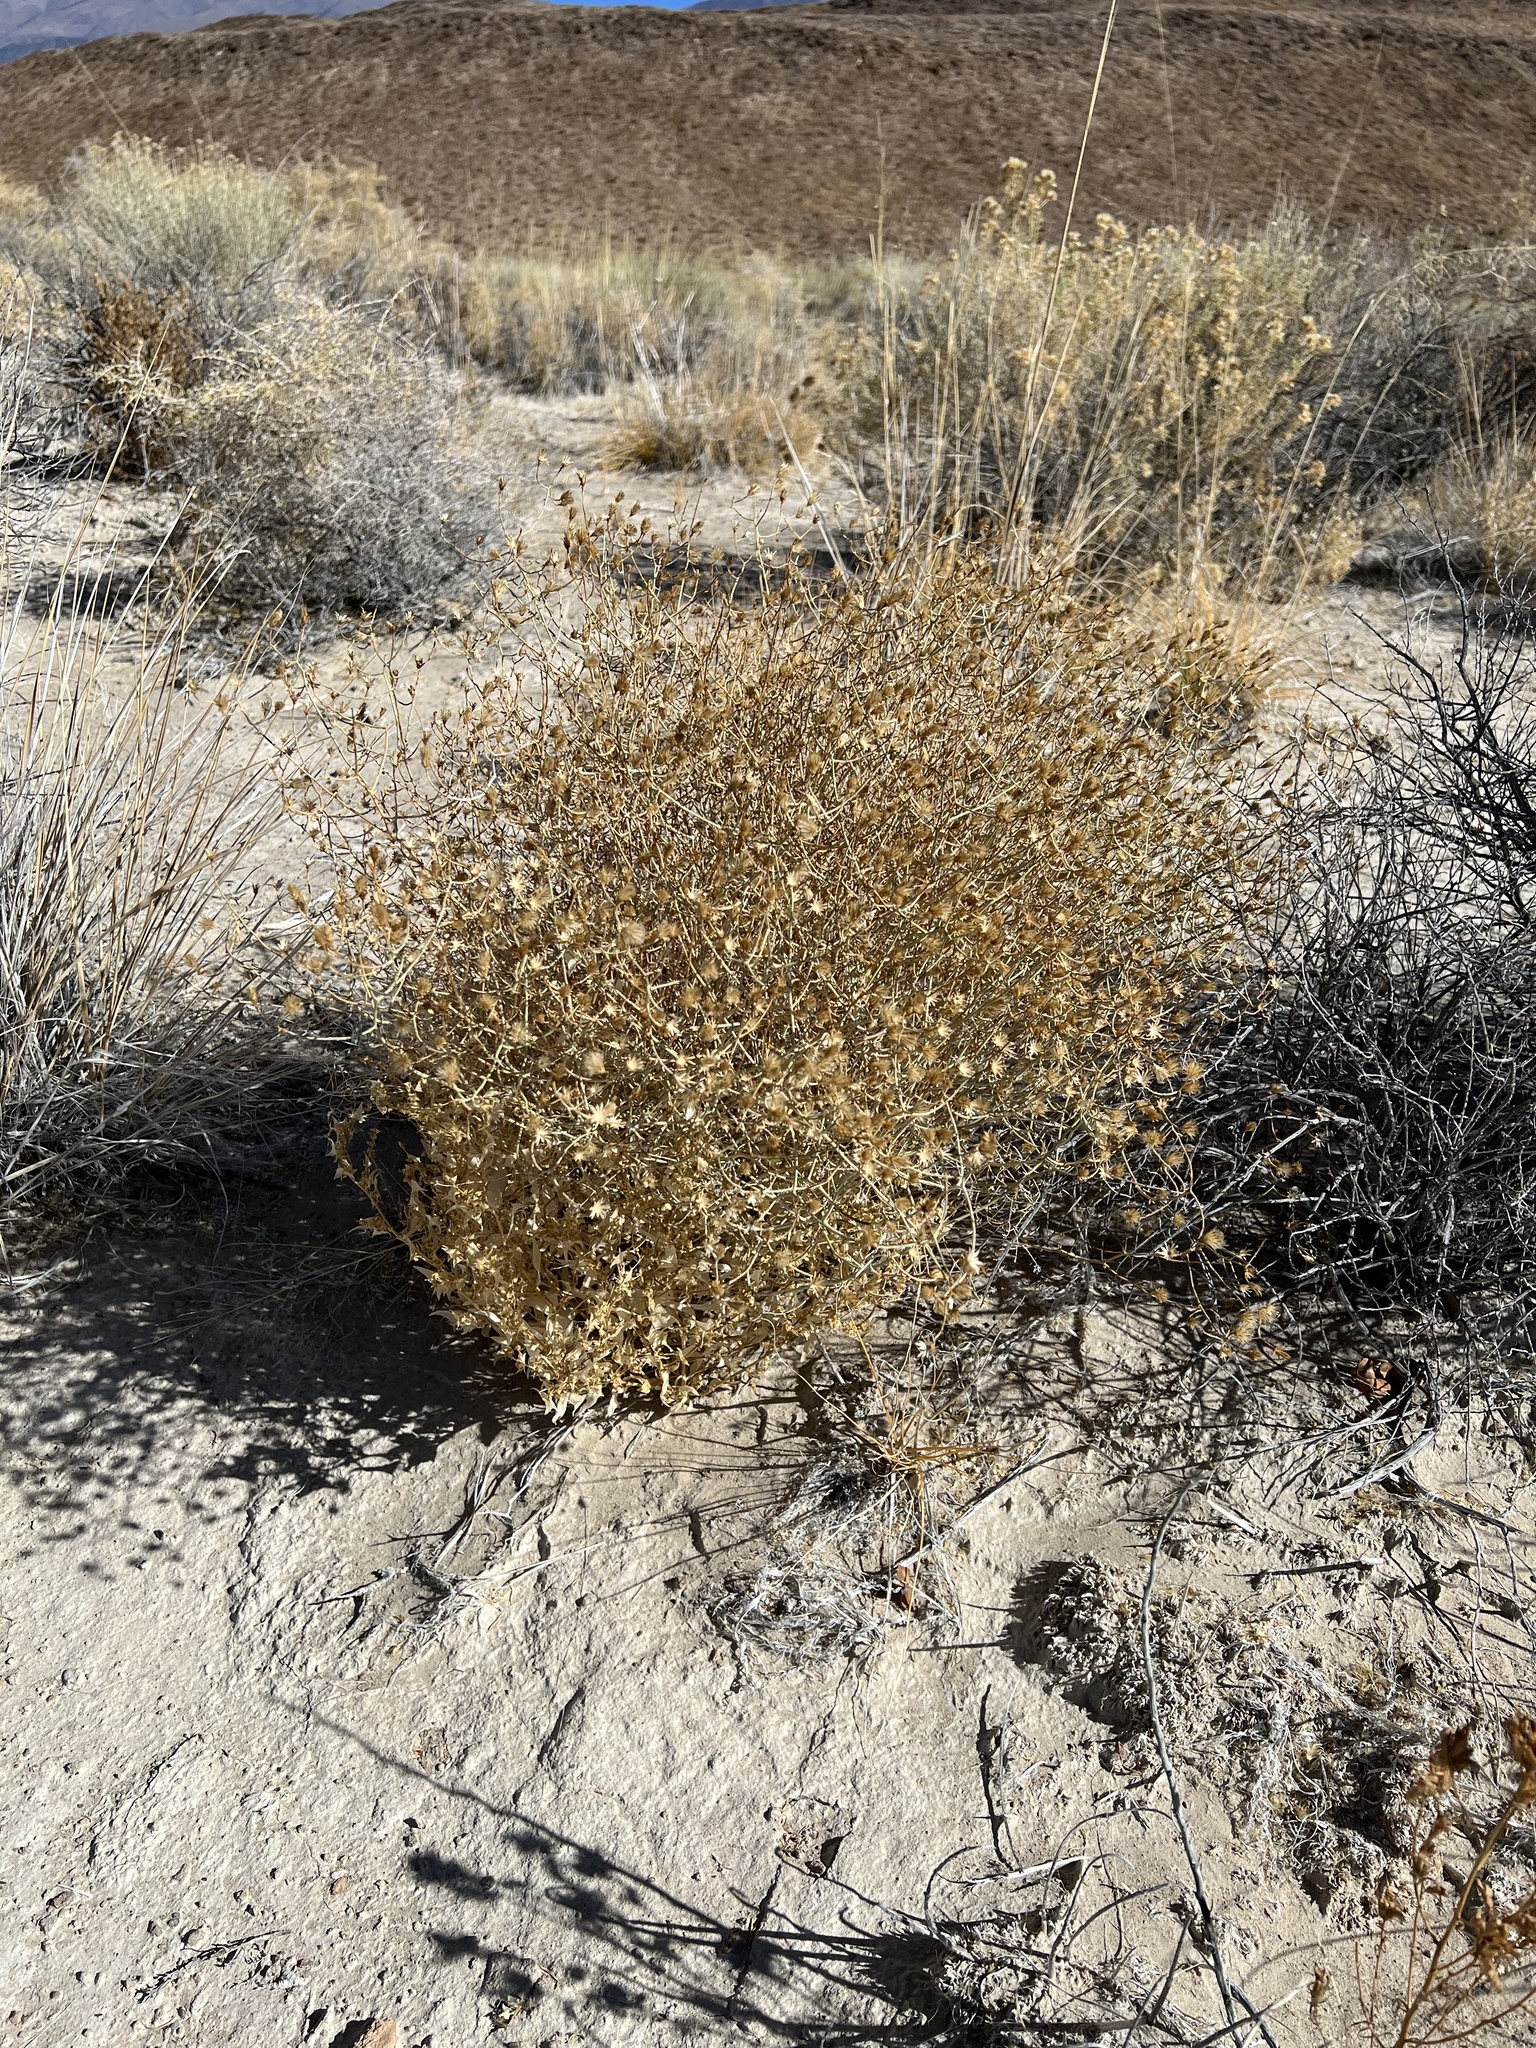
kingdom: Plantae
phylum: Tracheophyta
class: Magnoliopsida
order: Asterales
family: Asteraceae
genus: Leucosyris
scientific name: Leucosyris carnosa
